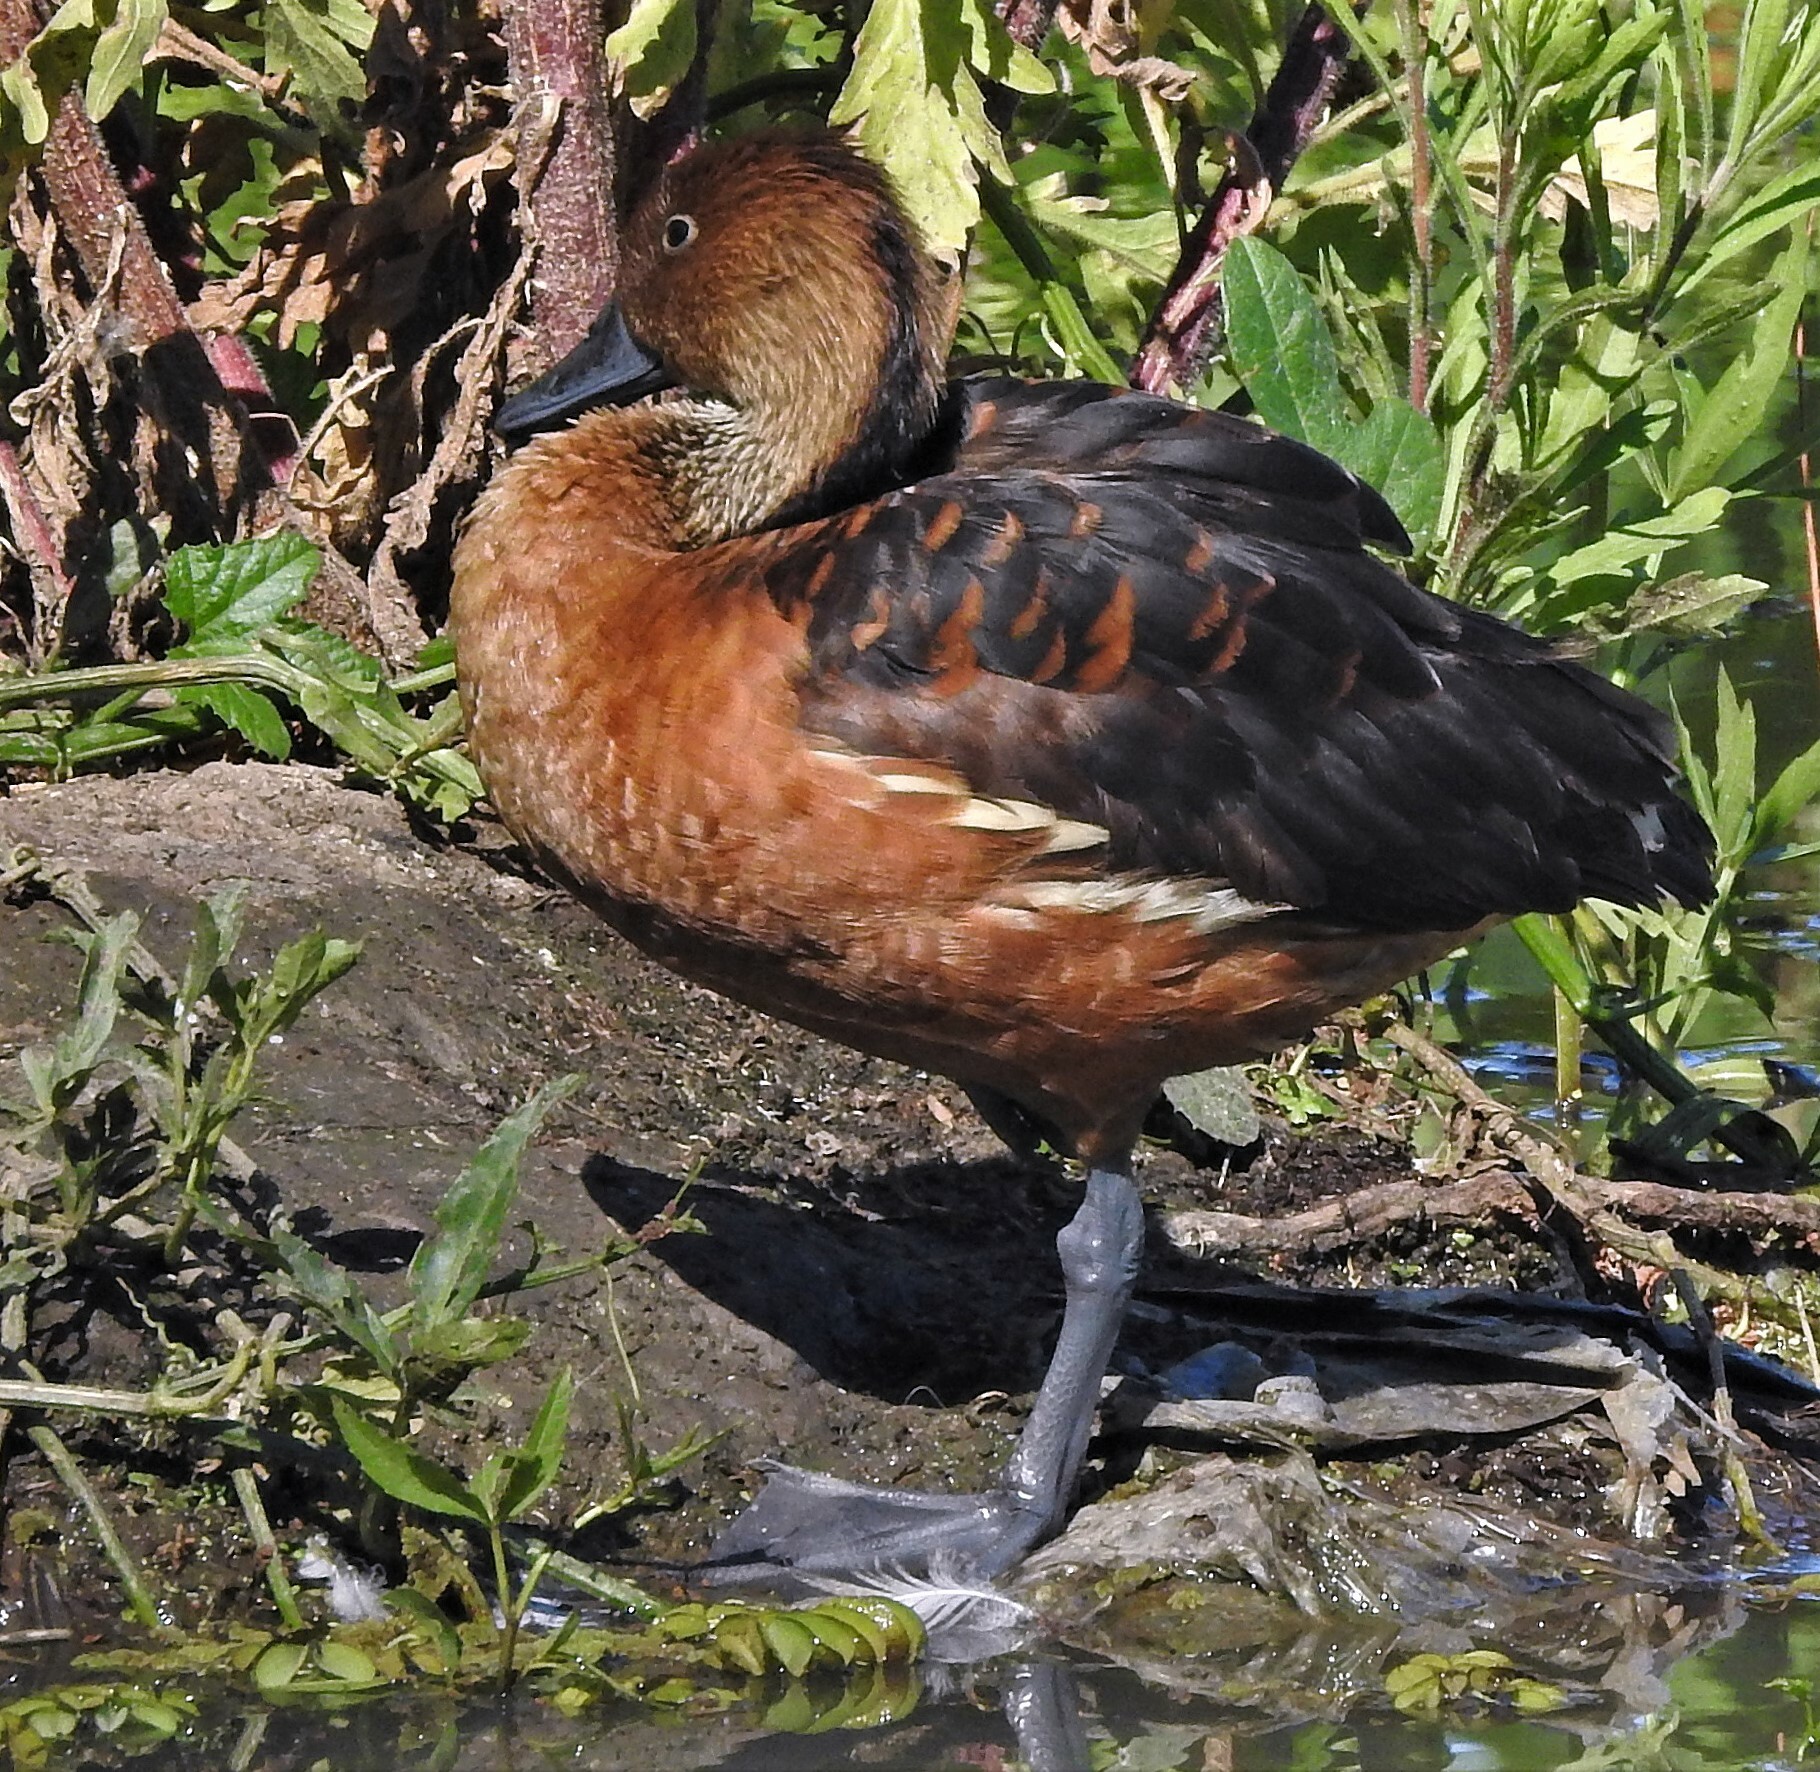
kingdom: Animalia
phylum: Chordata
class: Aves
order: Anseriformes
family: Anatidae
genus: Dendrocygna
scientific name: Dendrocygna bicolor
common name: Fulvous whistling duck
